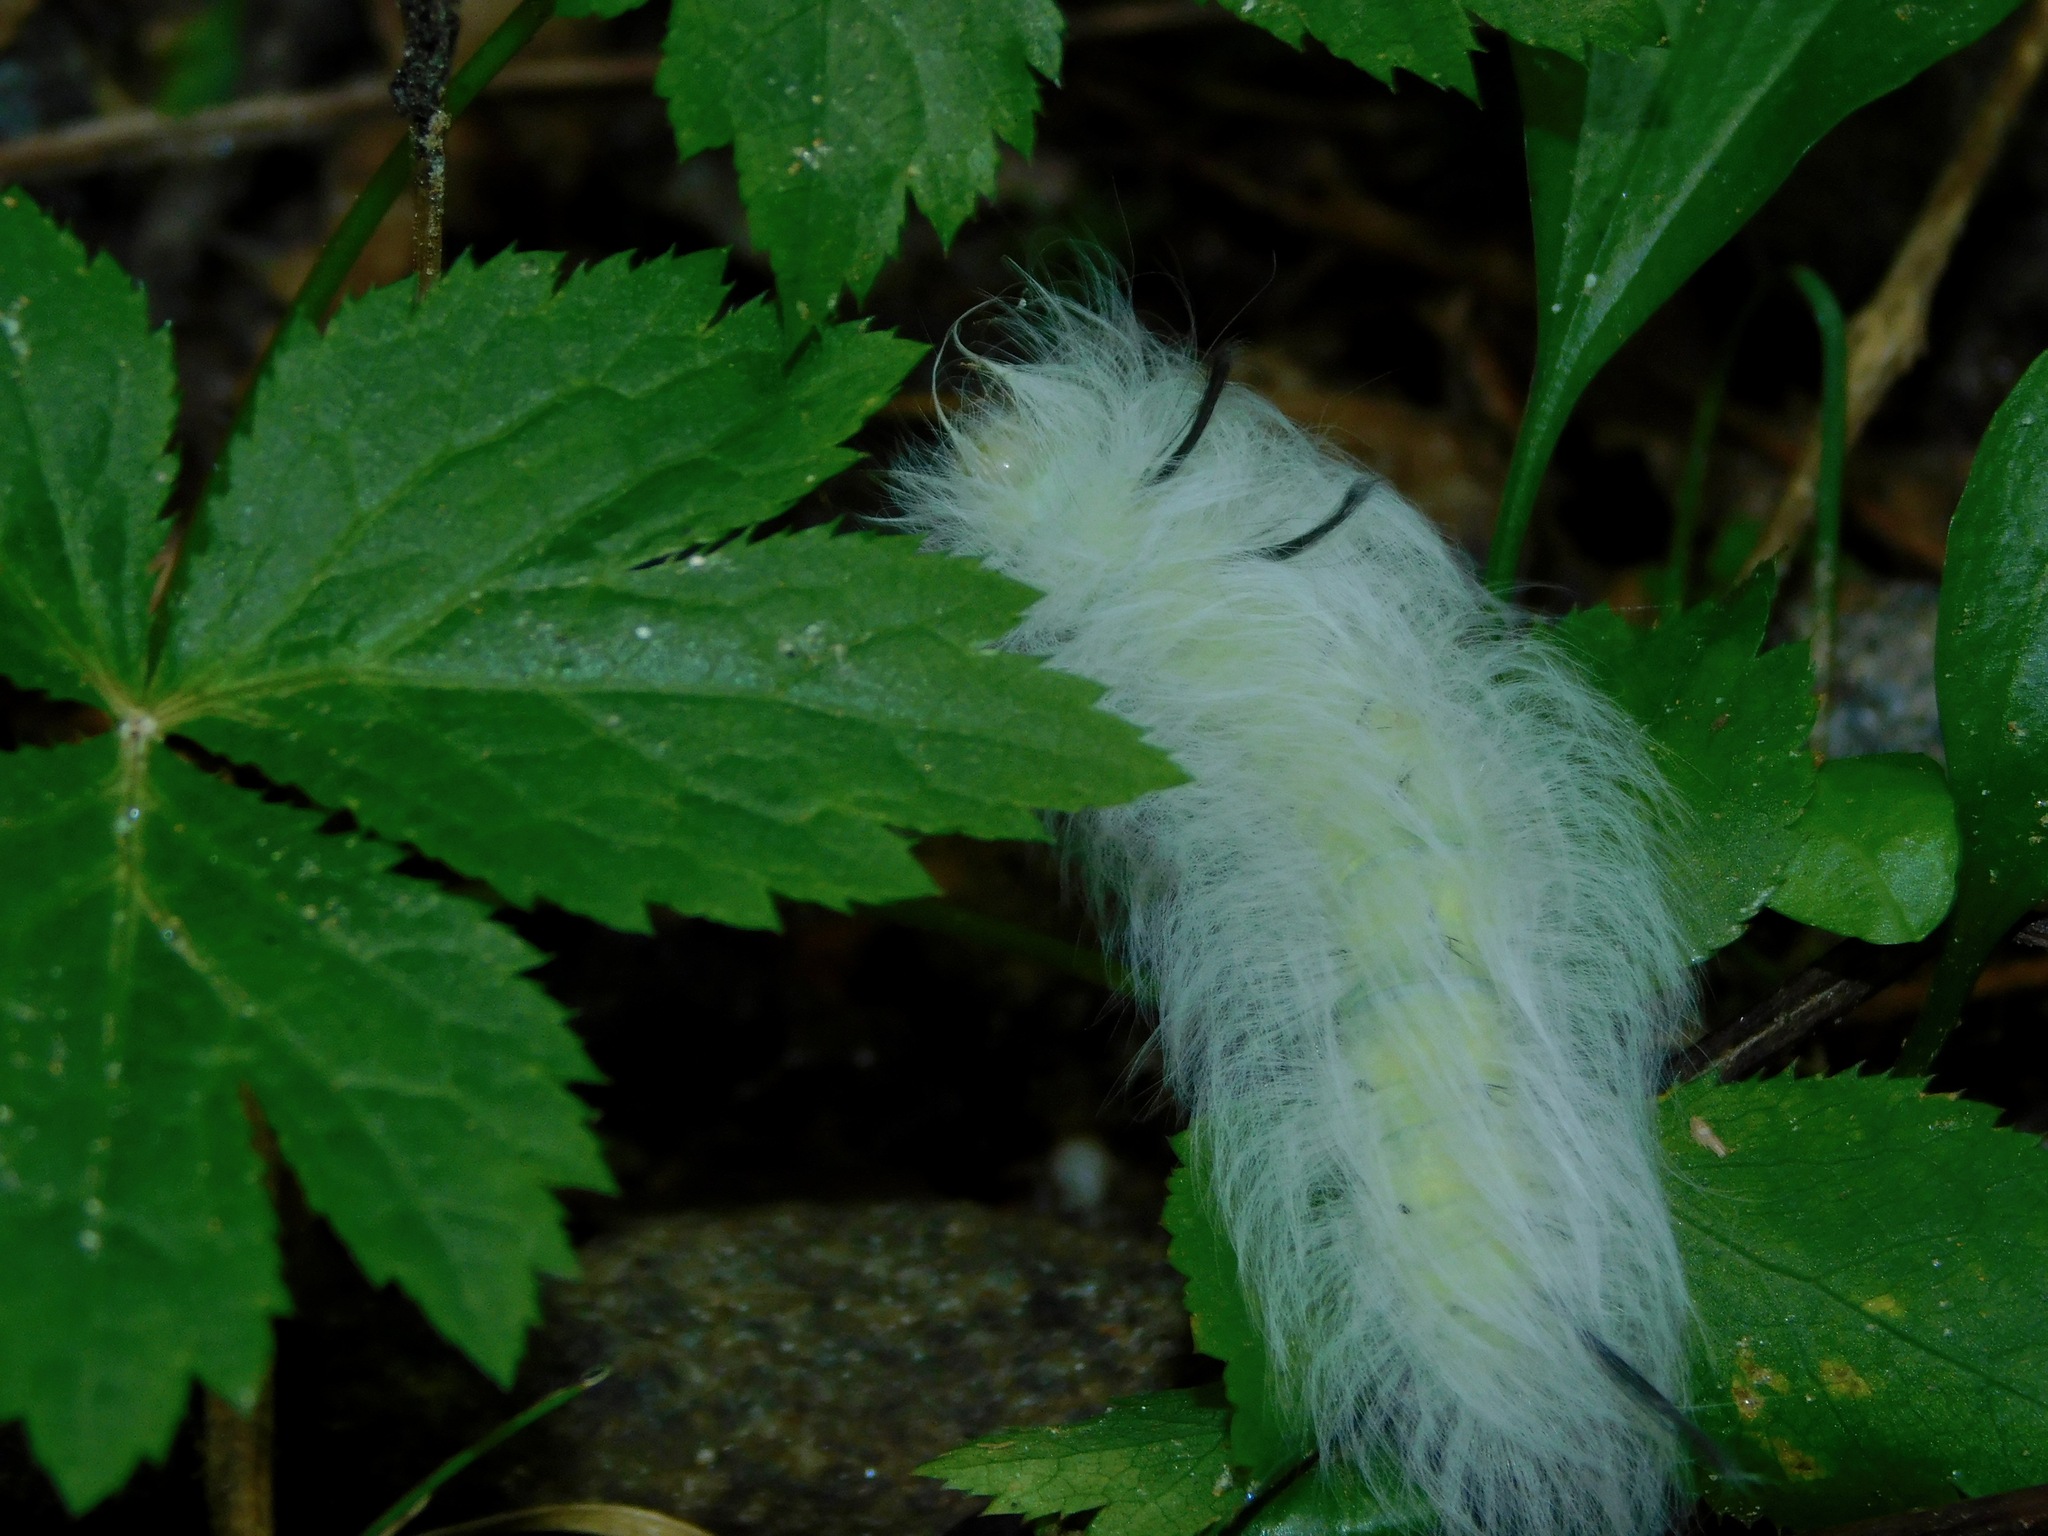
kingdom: Animalia
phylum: Arthropoda
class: Insecta
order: Lepidoptera
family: Noctuidae
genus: Acronicta
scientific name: Acronicta americana
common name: American dagger
